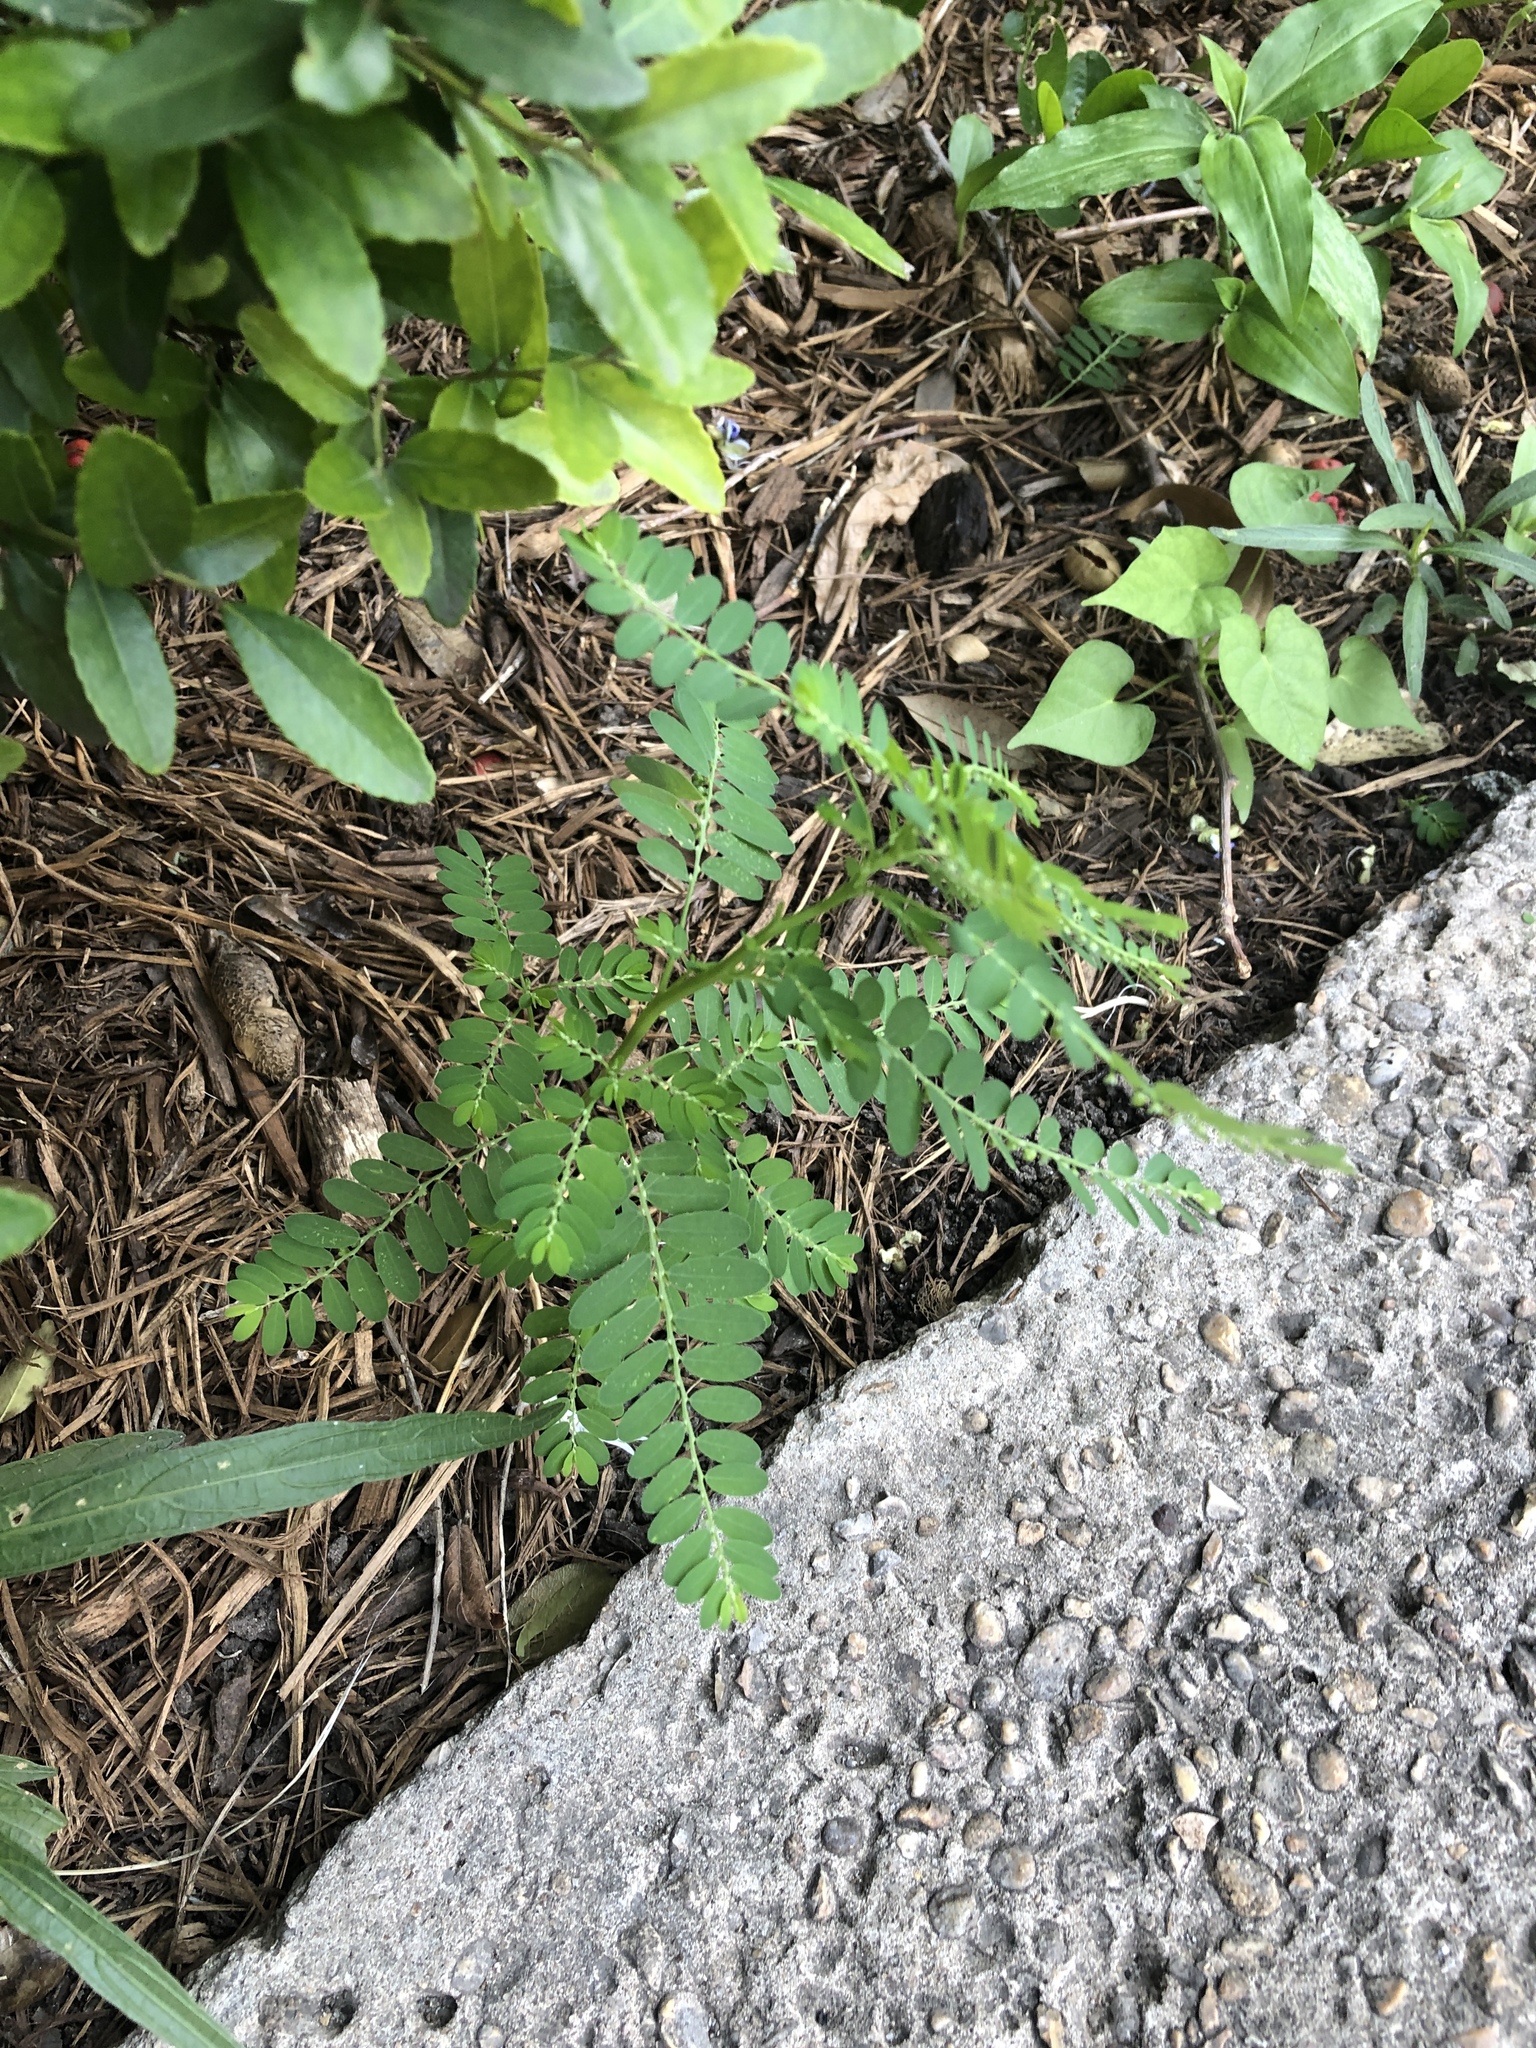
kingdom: Plantae
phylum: Tracheophyta
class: Magnoliopsida
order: Malpighiales
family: Phyllanthaceae
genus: Phyllanthus
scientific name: Phyllanthus urinaria
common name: Chamber bitter
